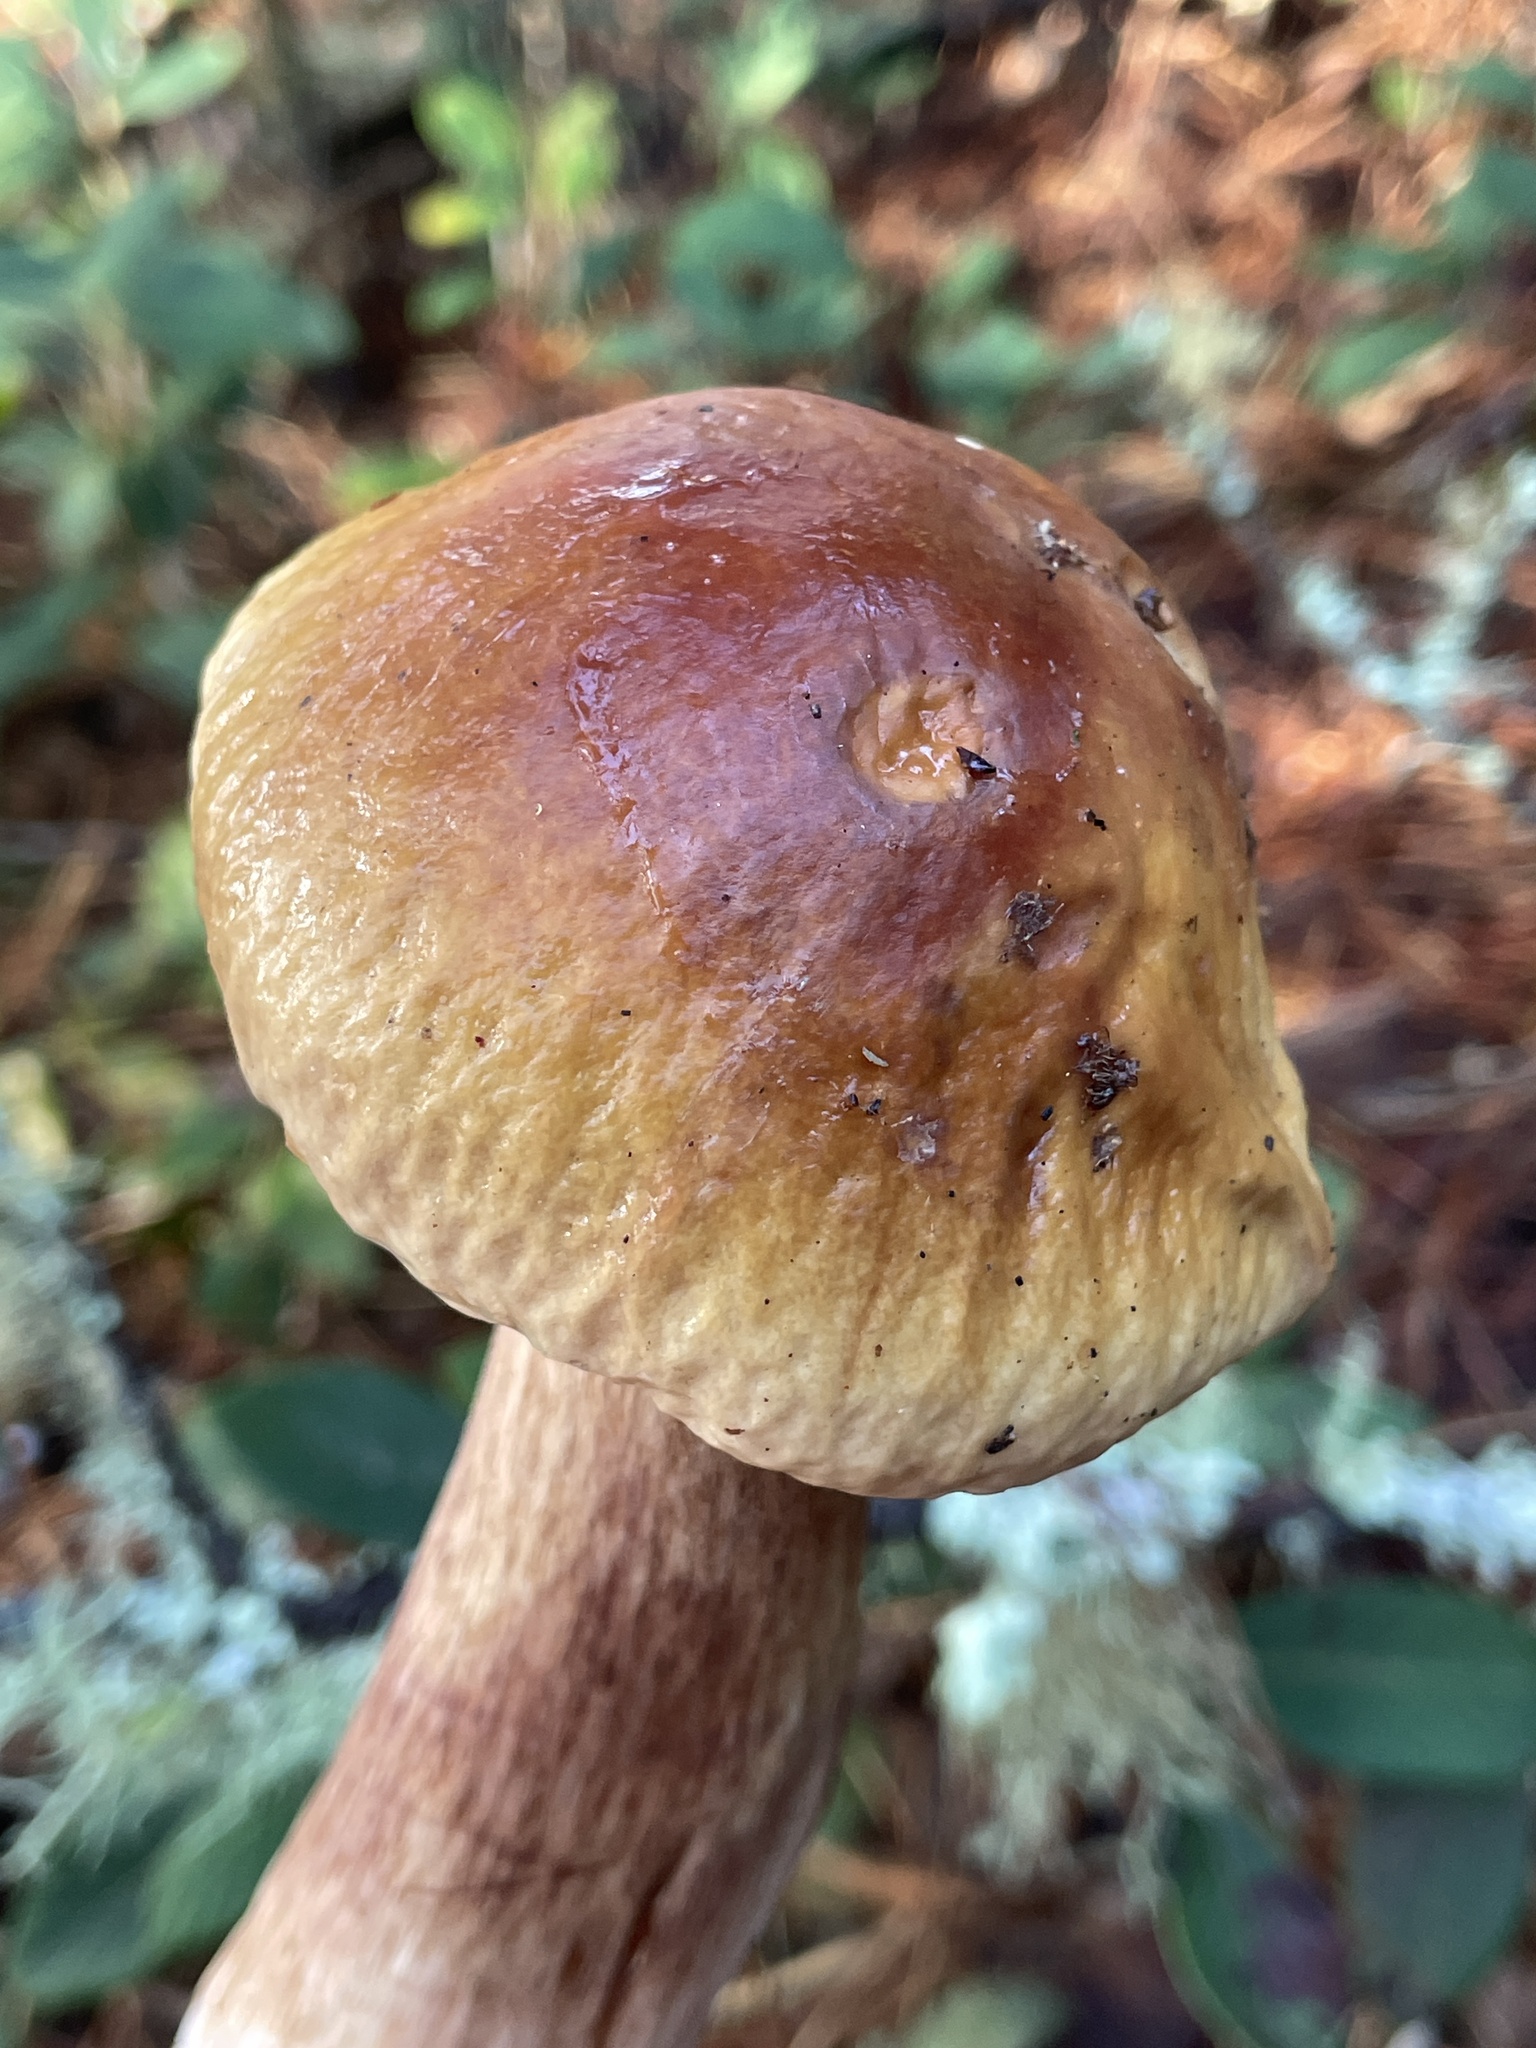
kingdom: Fungi
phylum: Basidiomycota
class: Agaricomycetes
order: Boletales
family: Boletaceae
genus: Boletus
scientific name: Boletus edulis
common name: Cep
